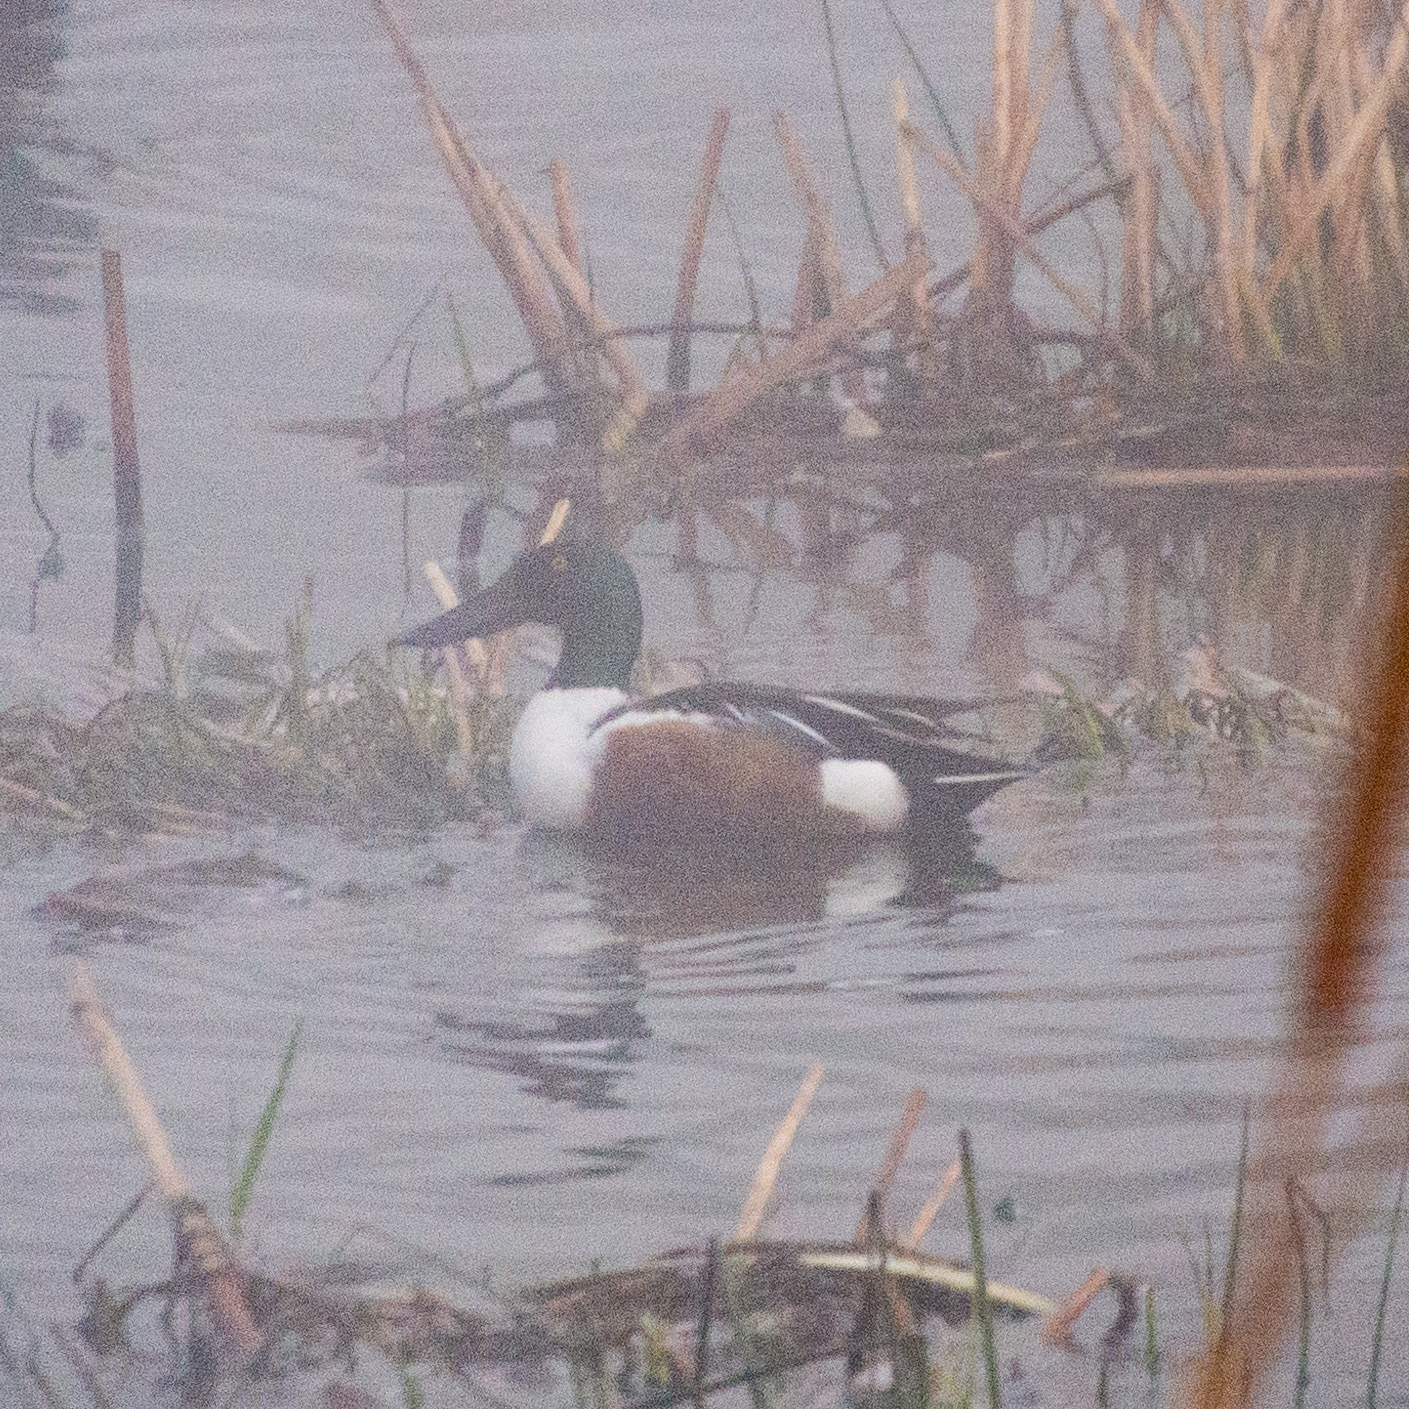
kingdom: Animalia
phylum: Chordata
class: Aves
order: Anseriformes
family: Anatidae
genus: Spatula
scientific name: Spatula clypeata
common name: Northern shoveler
